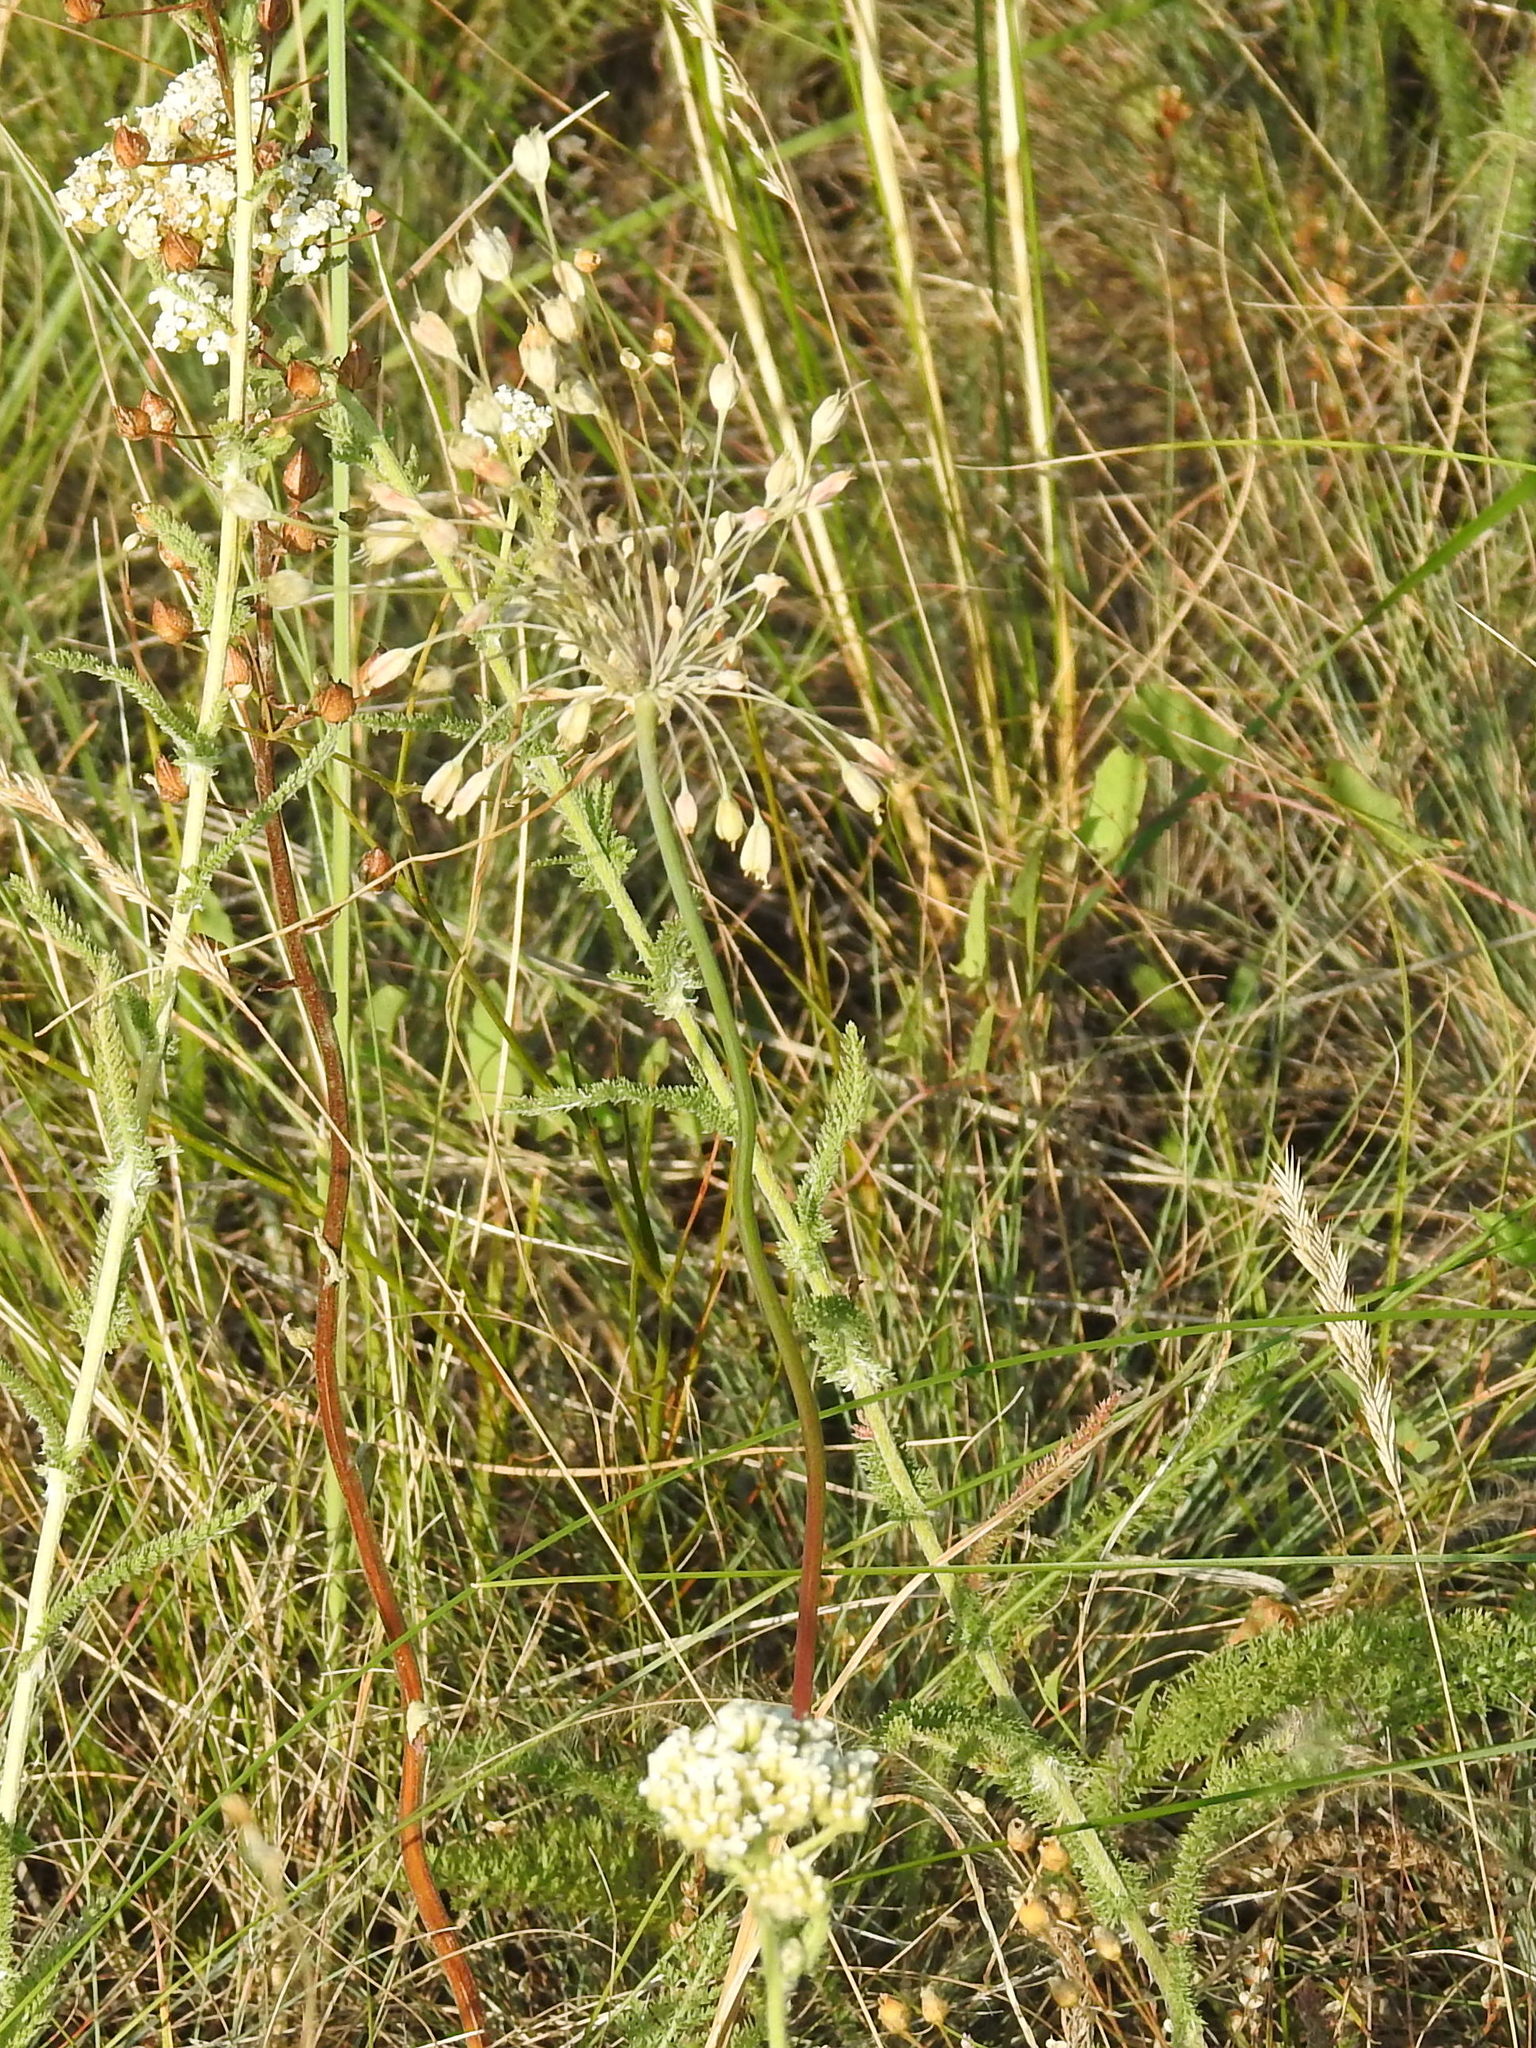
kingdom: Plantae
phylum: Tracheophyta
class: Liliopsida
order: Asparagales
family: Amaryllidaceae
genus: Allium
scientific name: Allium flavum
